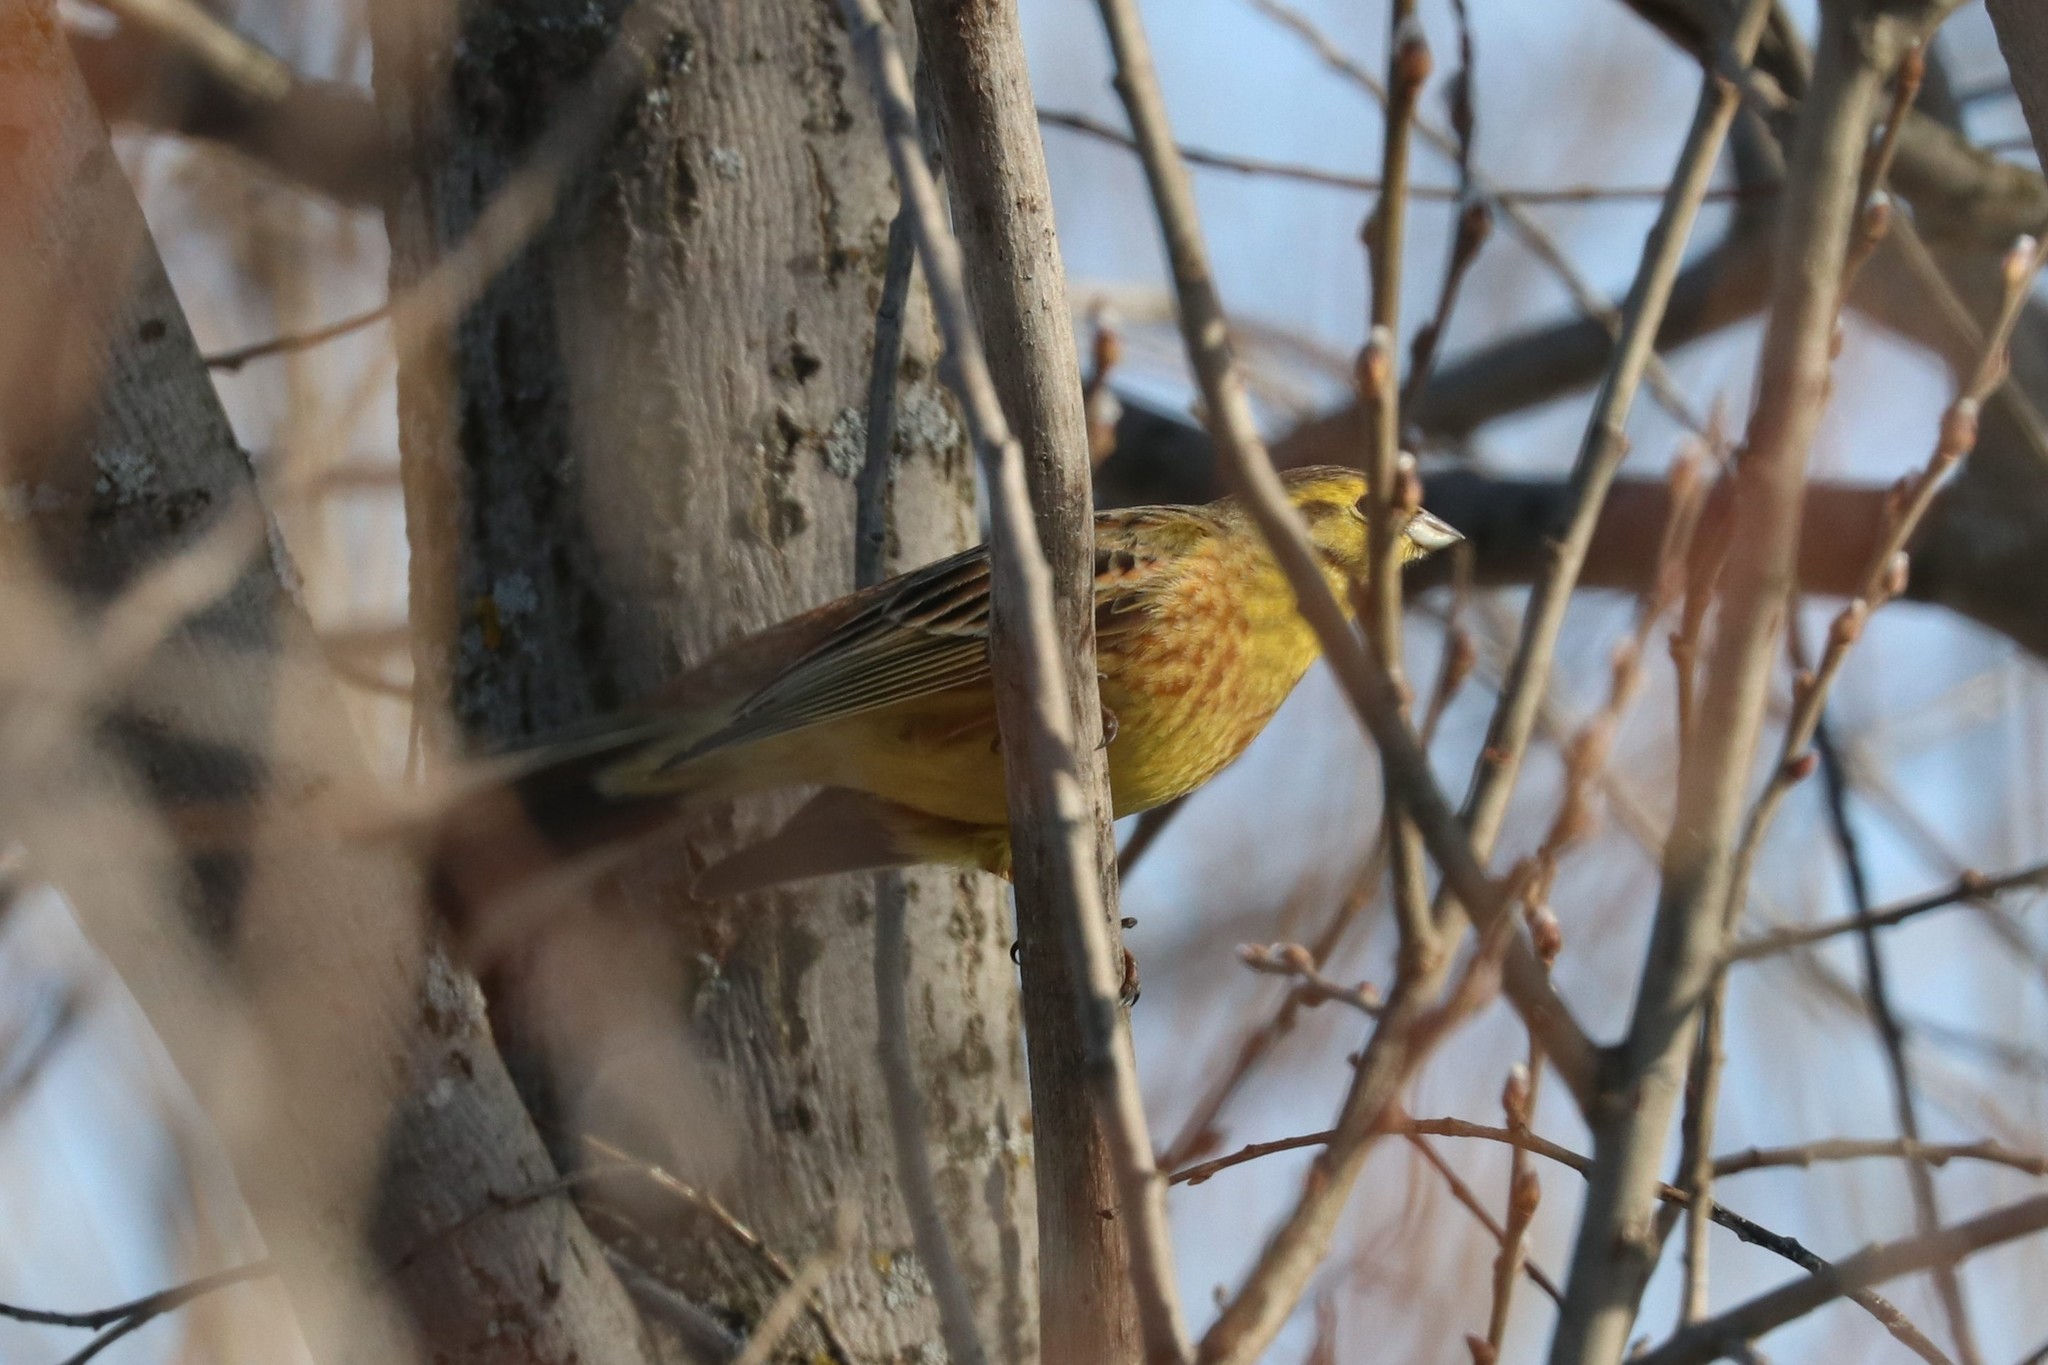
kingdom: Animalia
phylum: Chordata
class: Aves
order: Passeriformes
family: Emberizidae
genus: Emberiza
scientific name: Emberiza citrinella
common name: Yellowhammer
